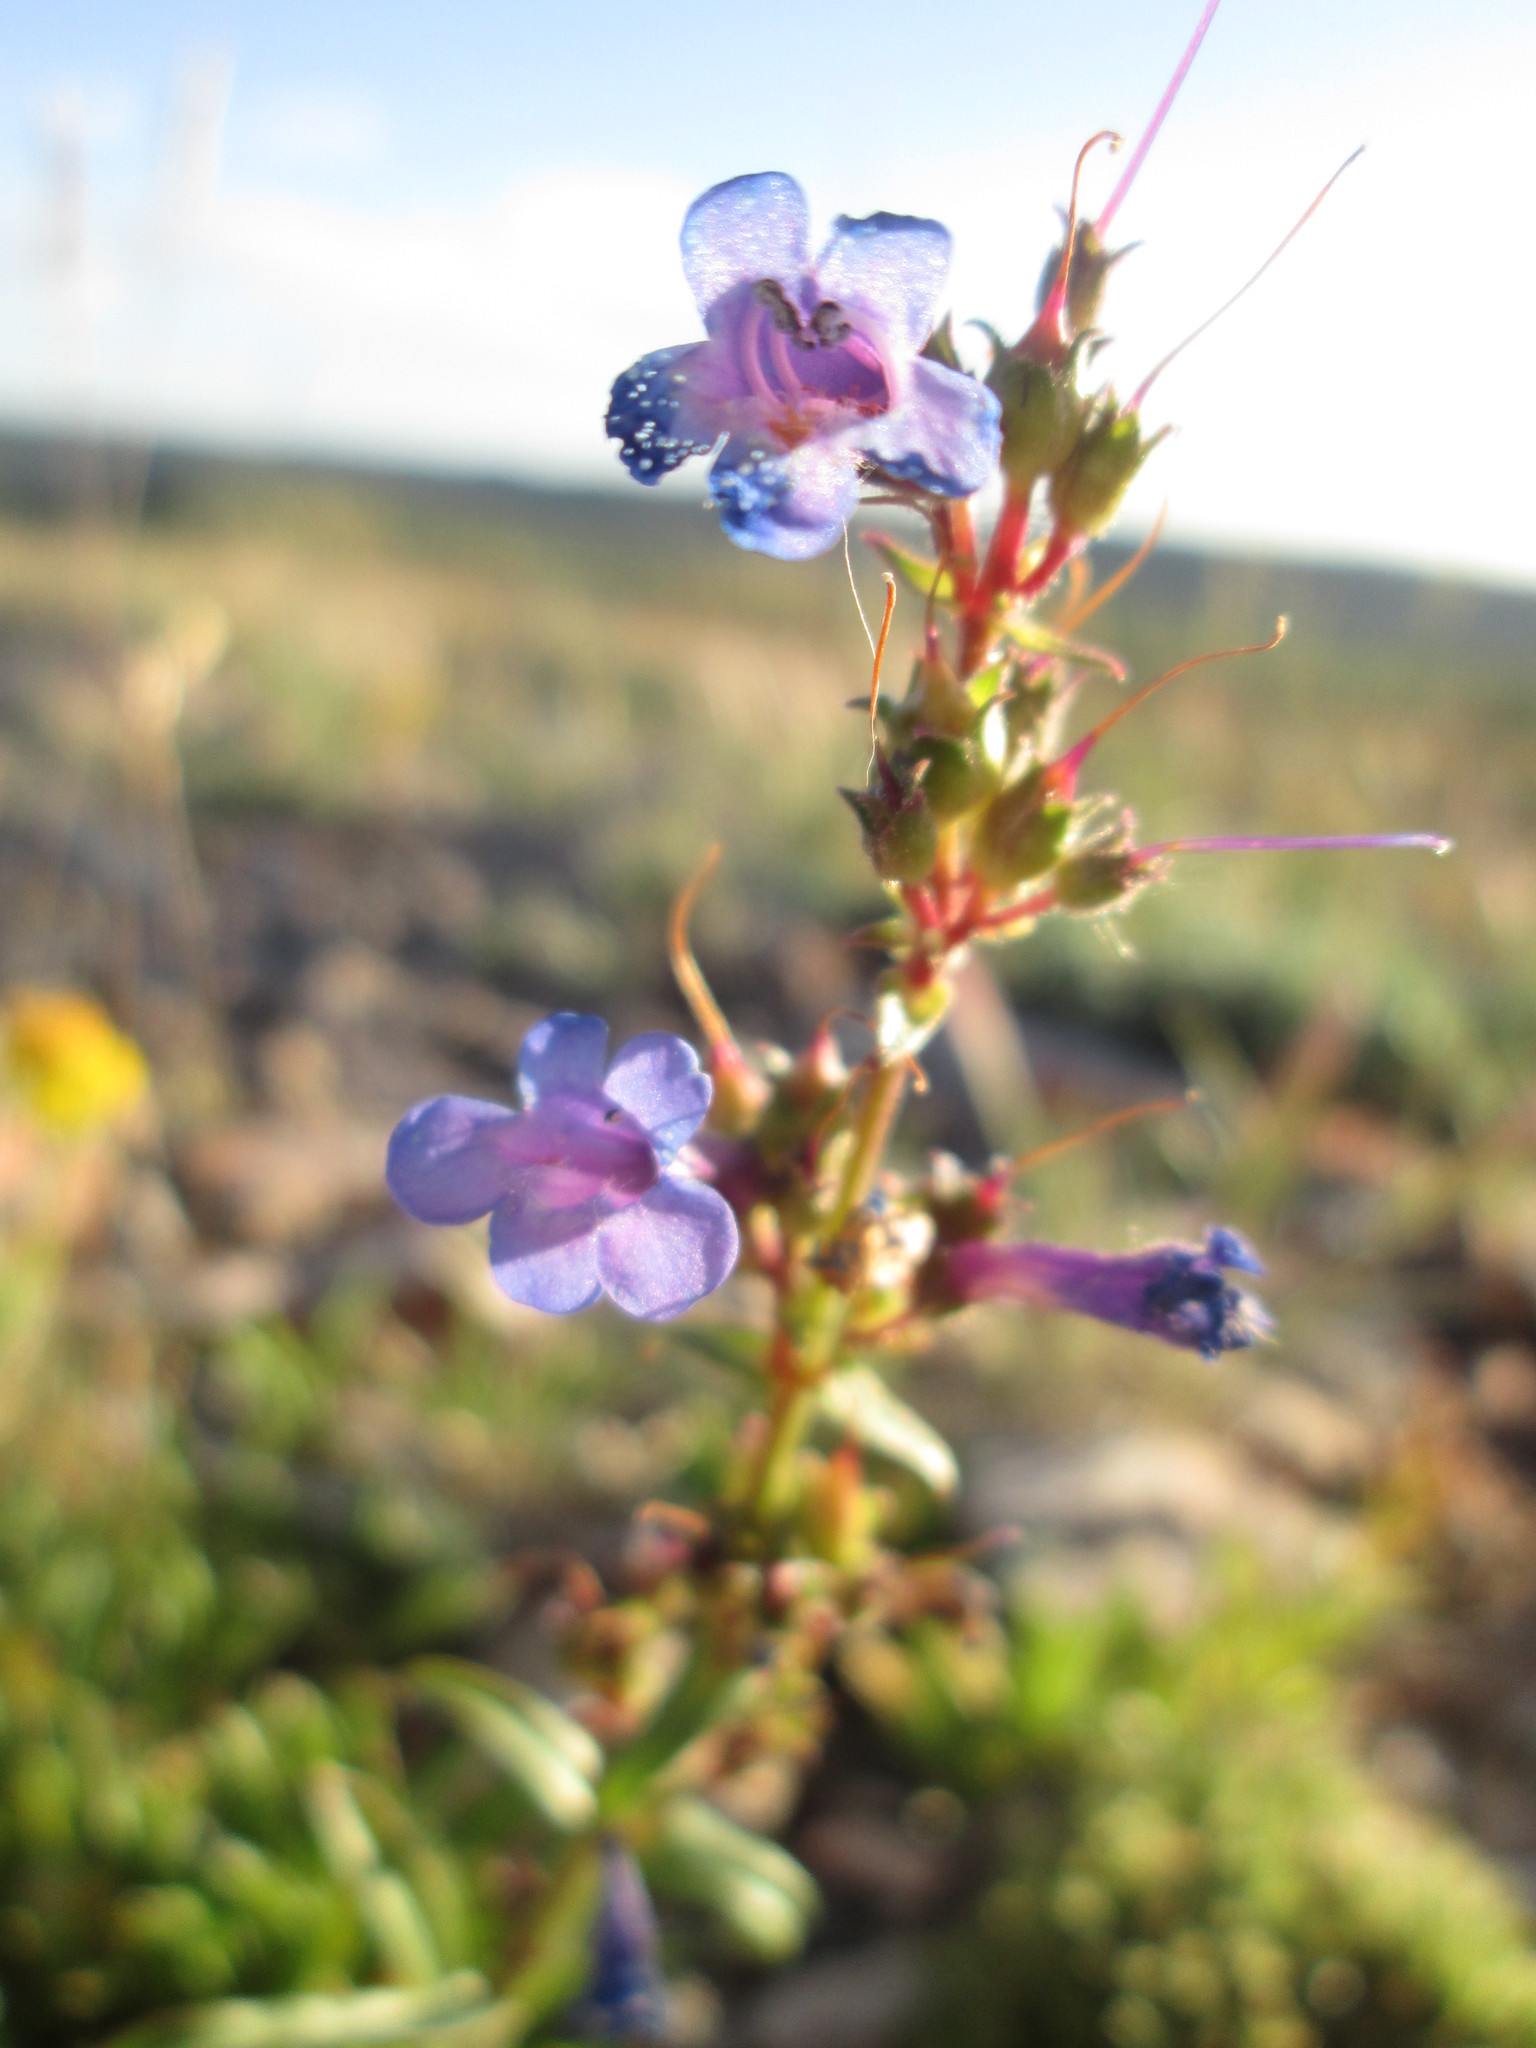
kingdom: Plantae
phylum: Tracheophyta
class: Magnoliopsida
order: Lamiales
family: Plantaginaceae
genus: Penstemon
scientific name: Penstemon cyananthus
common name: Wasatch penstemon
